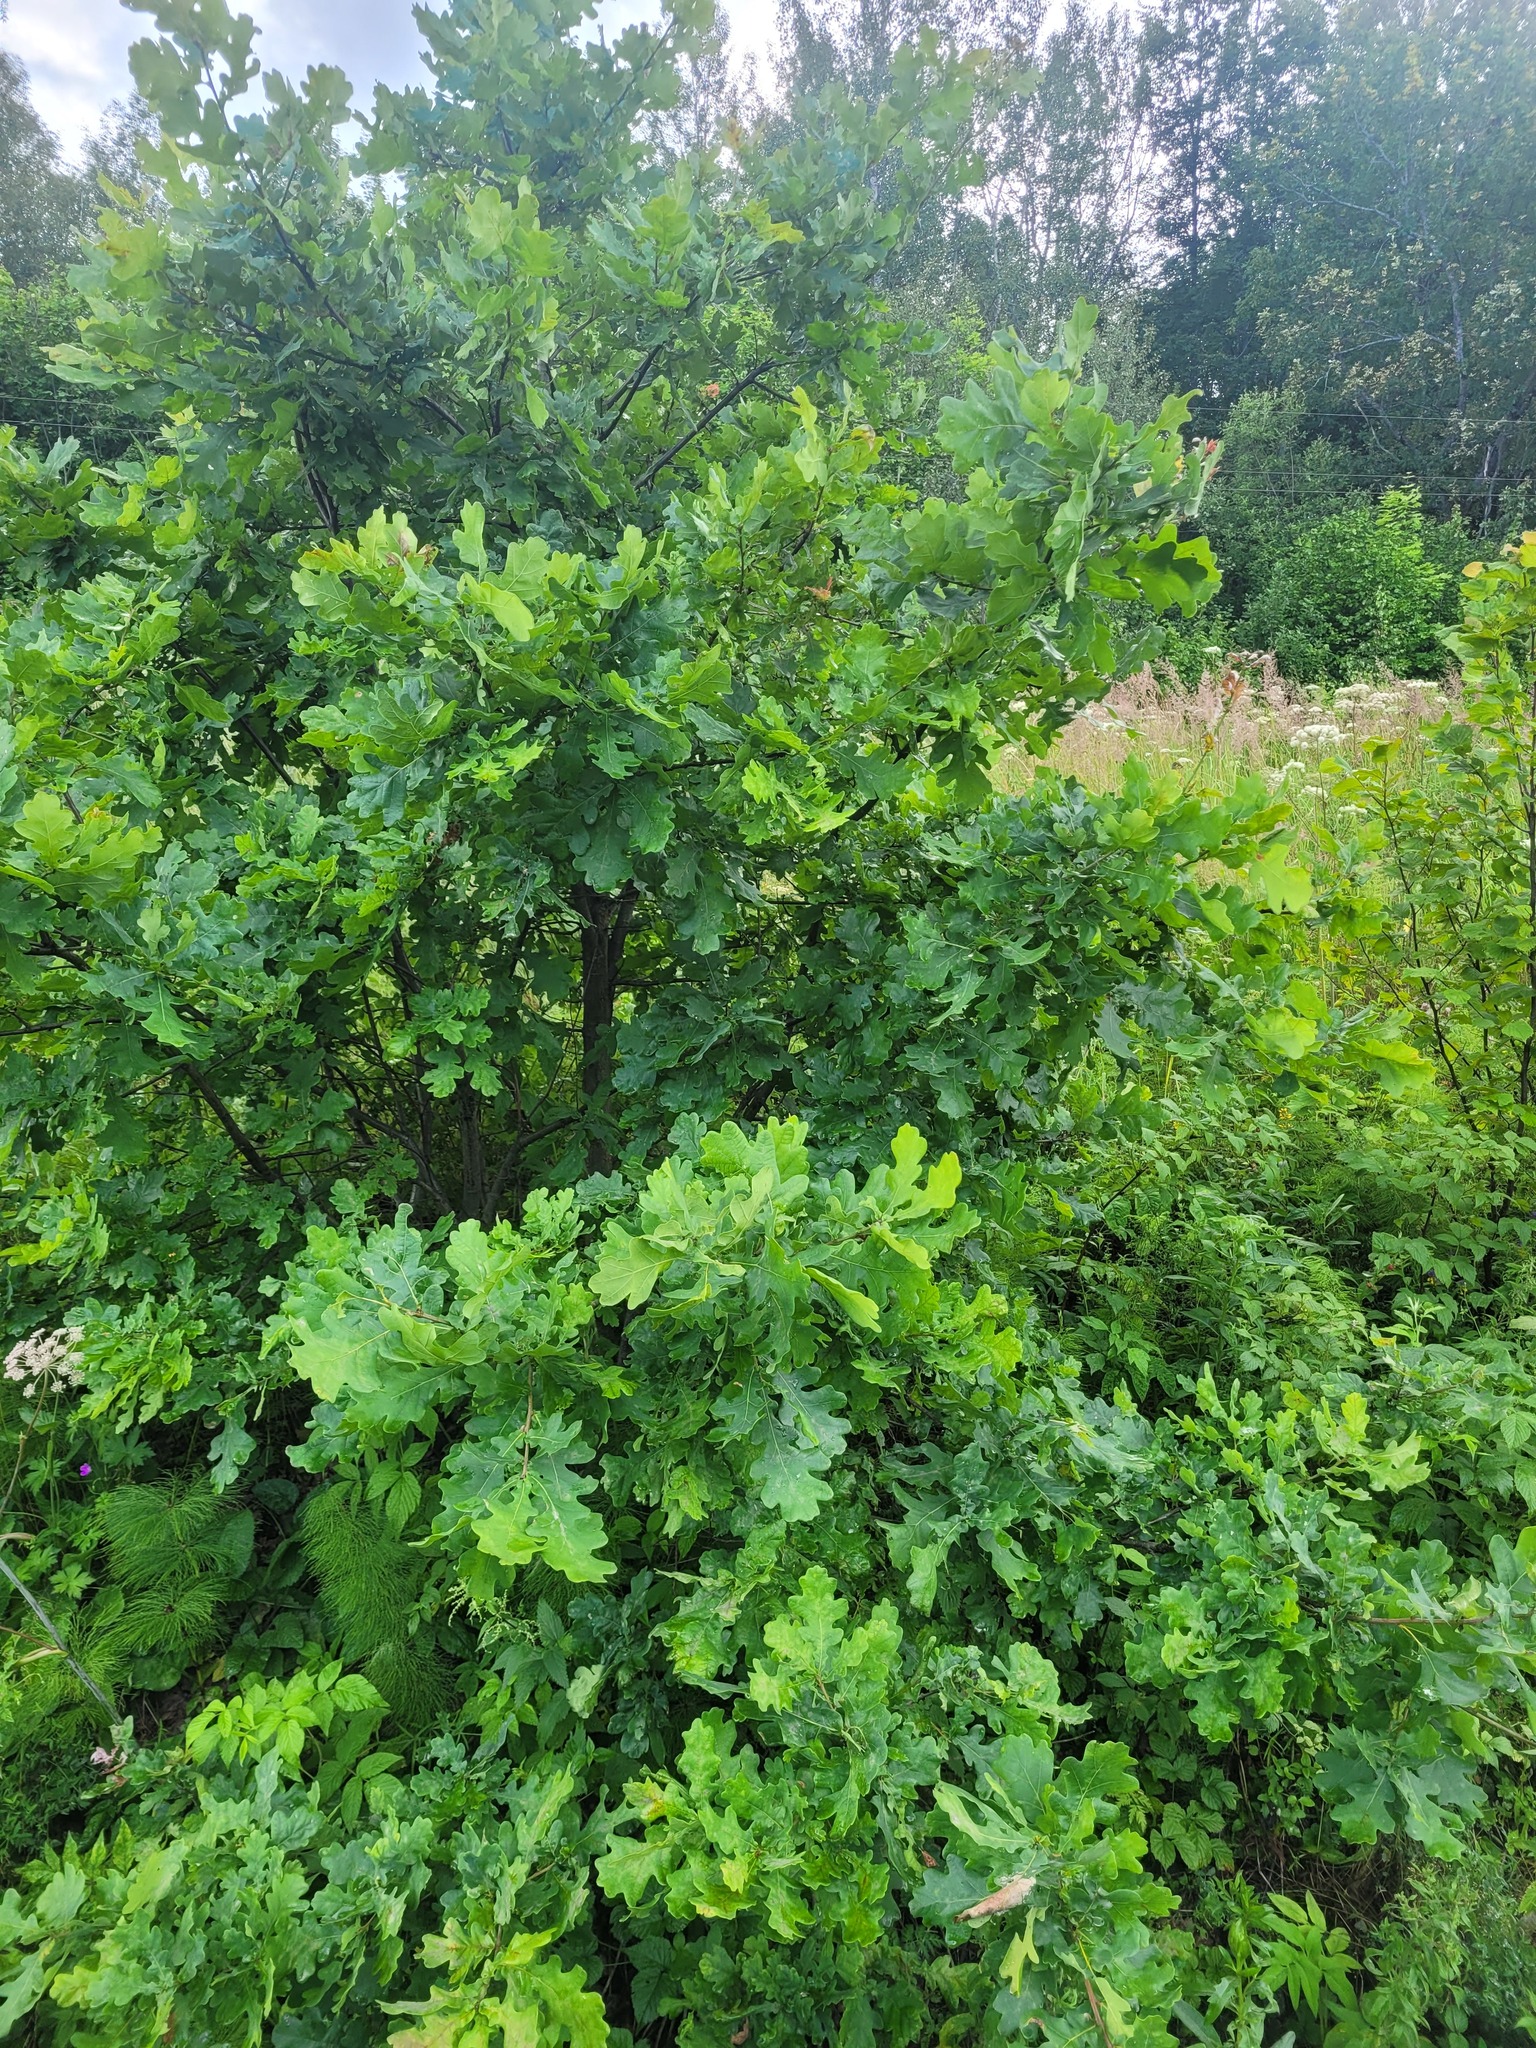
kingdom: Plantae
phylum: Tracheophyta
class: Magnoliopsida
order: Fagales
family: Fagaceae
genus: Quercus
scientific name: Quercus robur
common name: Pedunculate oak
